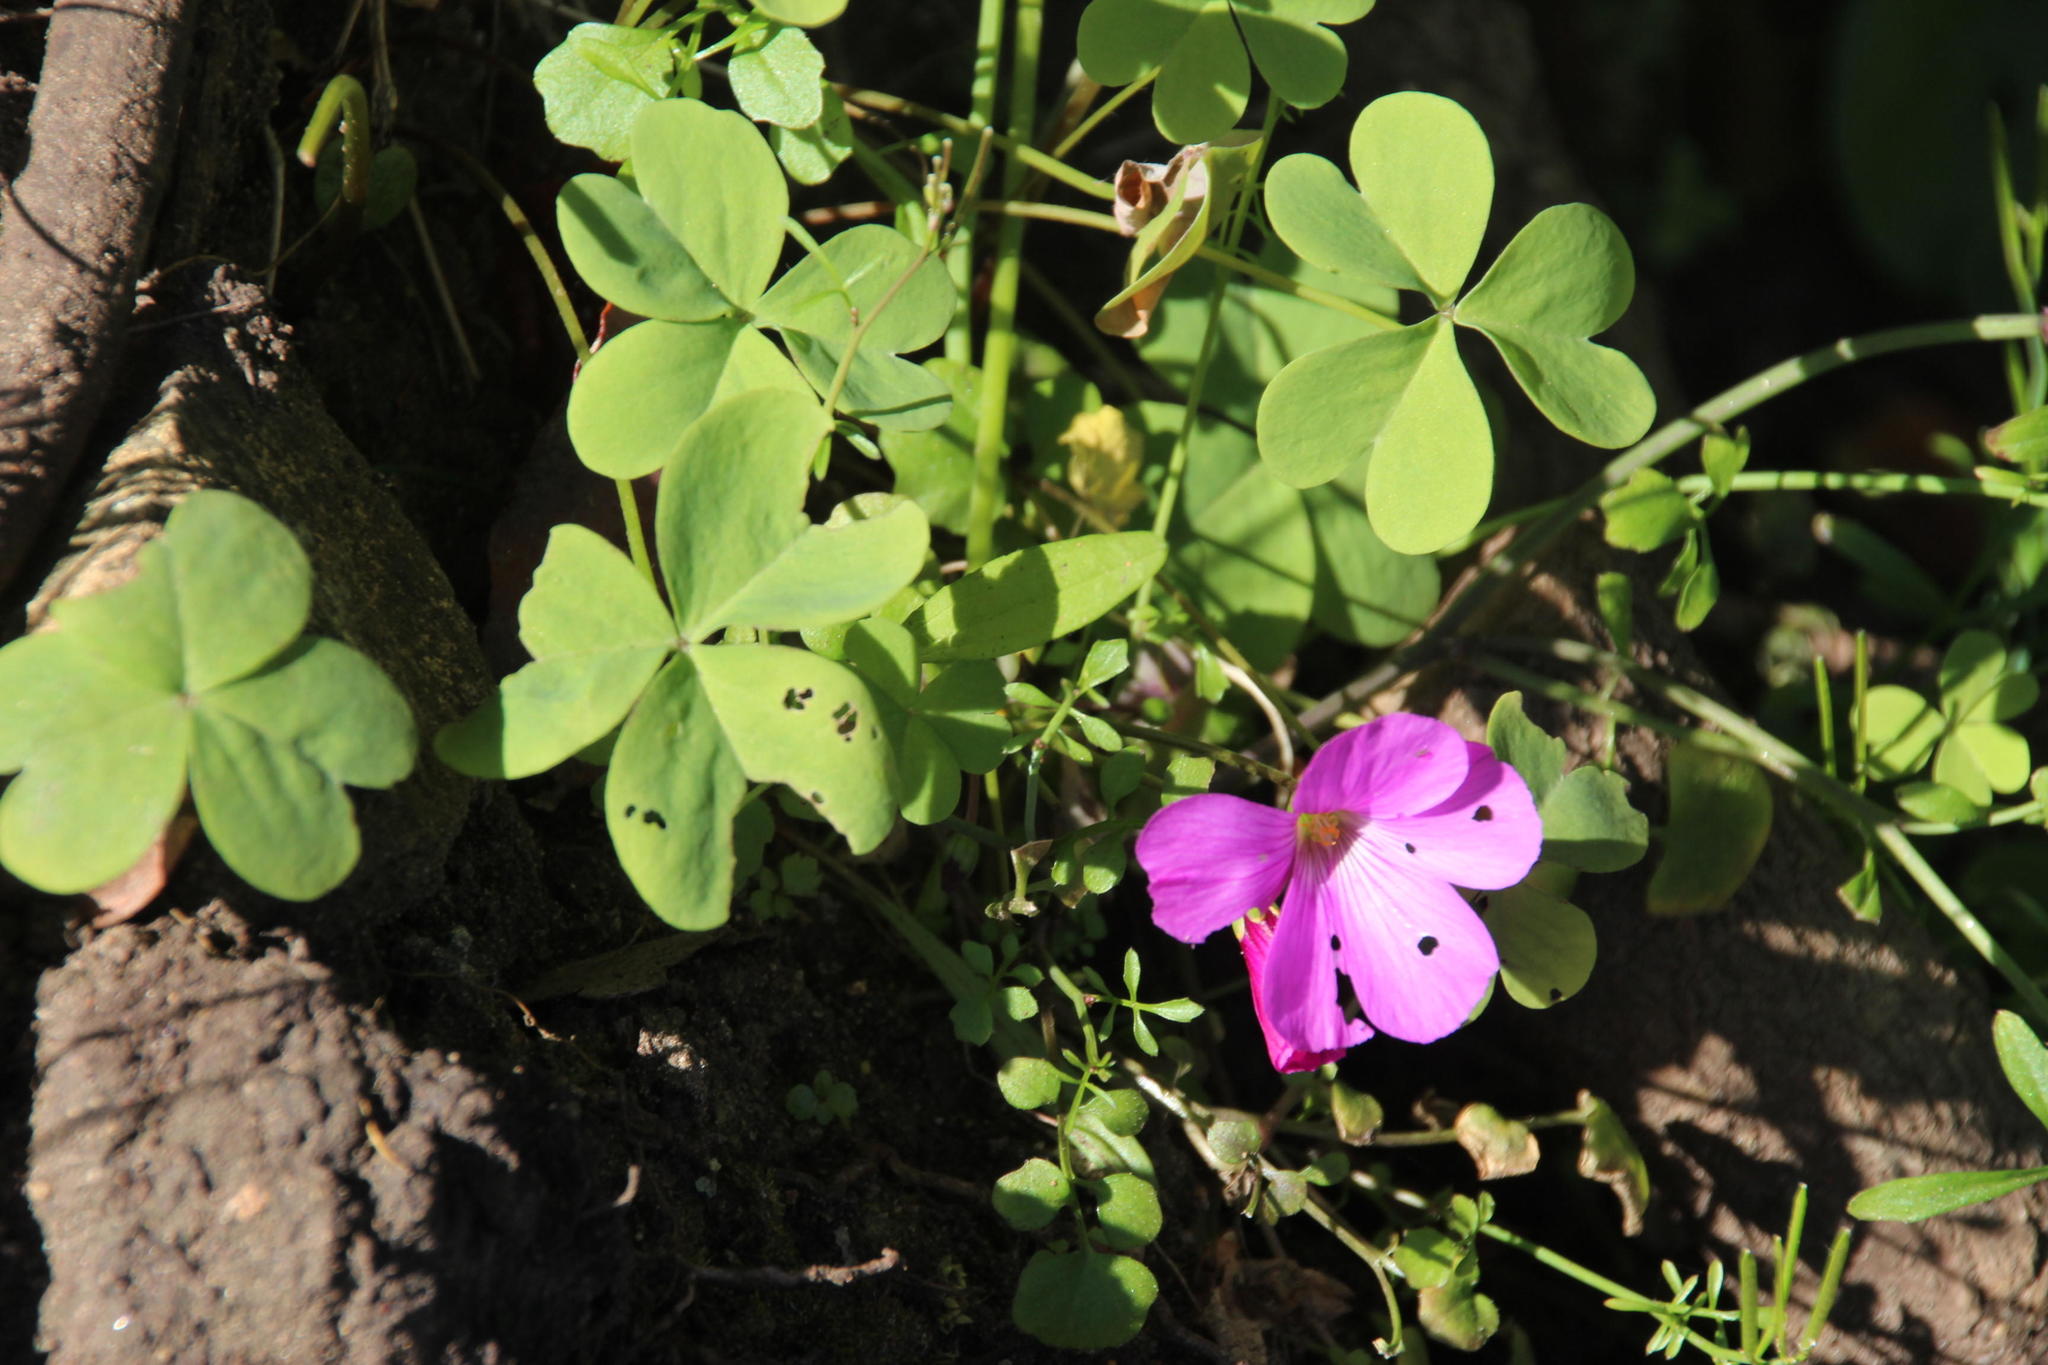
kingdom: Plantae
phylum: Tracheophyta
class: Magnoliopsida
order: Oxalidales
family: Oxalidaceae
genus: Oxalis
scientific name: Oxalis arenaria
